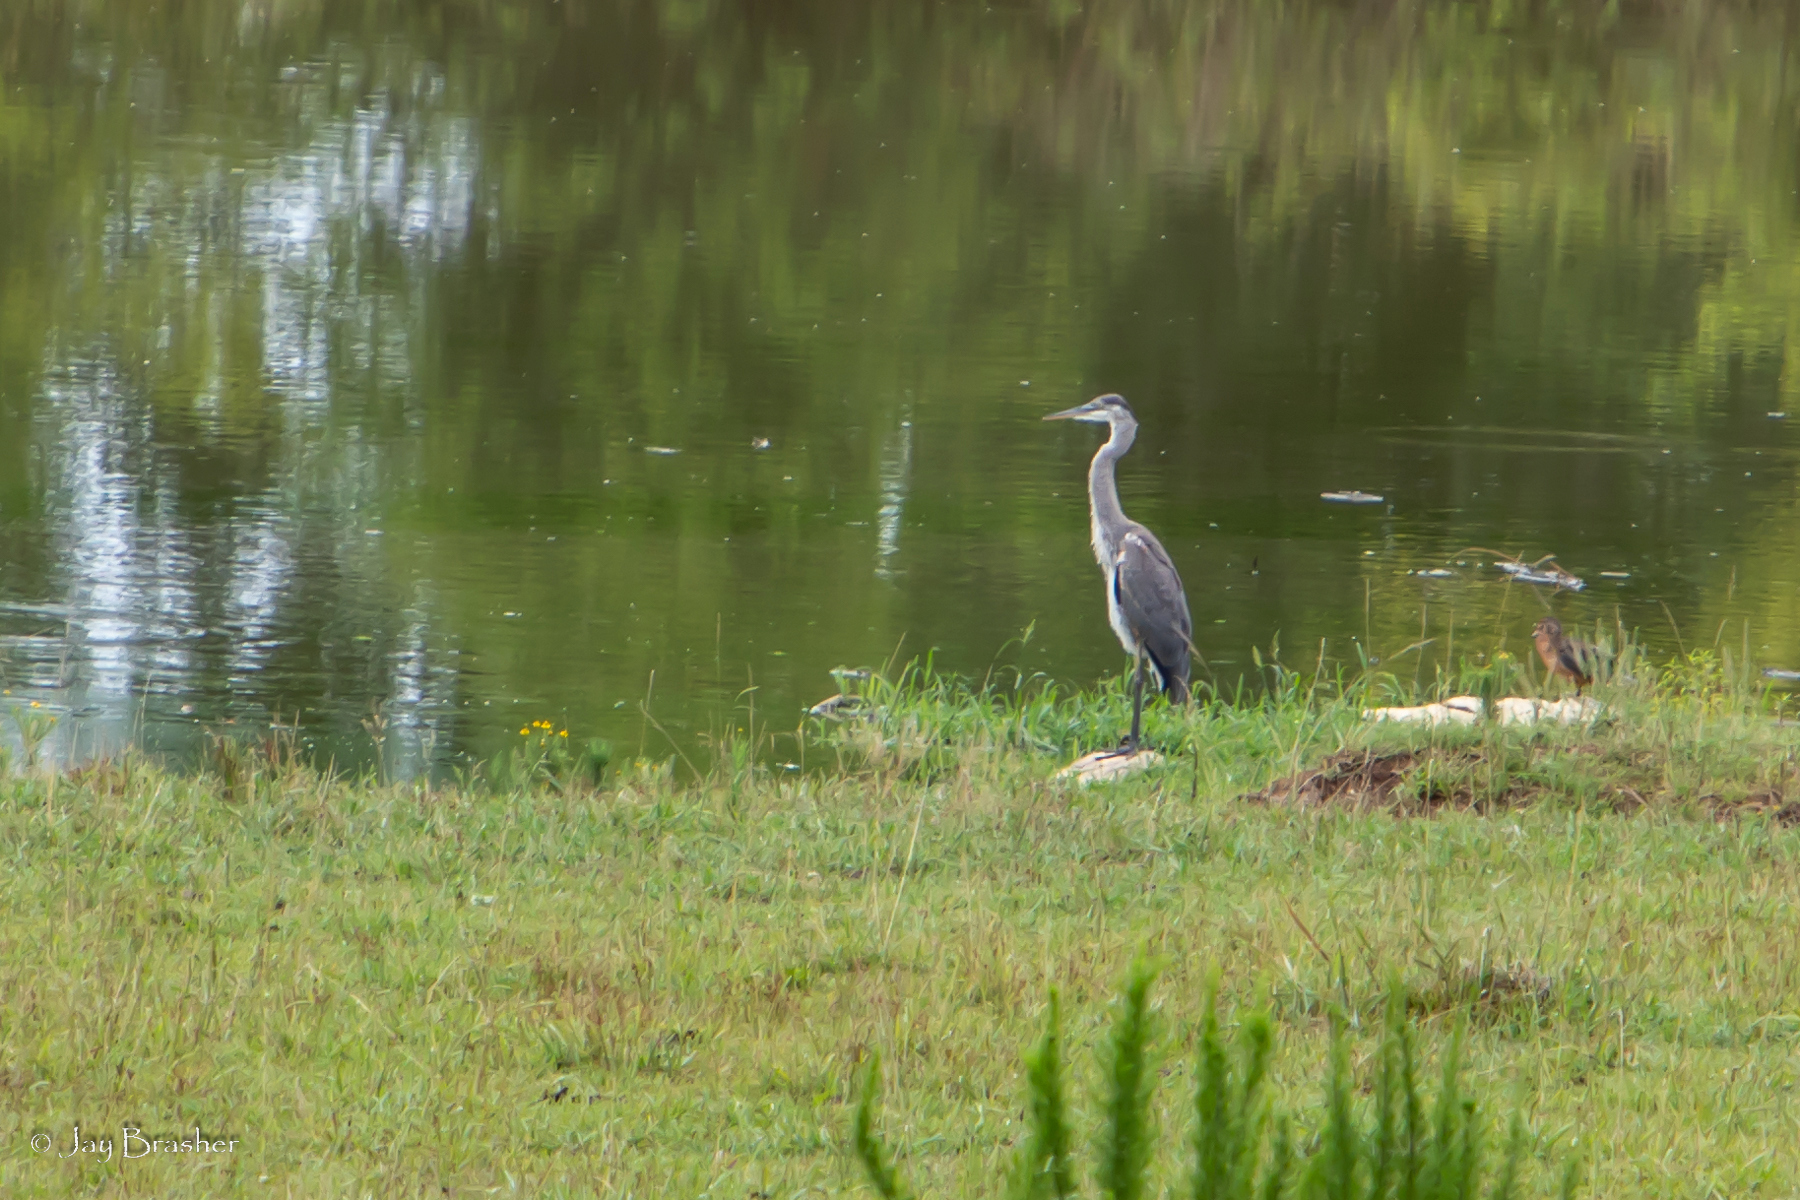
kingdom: Animalia
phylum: Chordata
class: Aves
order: Pelecaniformes
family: Ardeidae
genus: Ardea
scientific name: Ardea herodias
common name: Great blue heron
